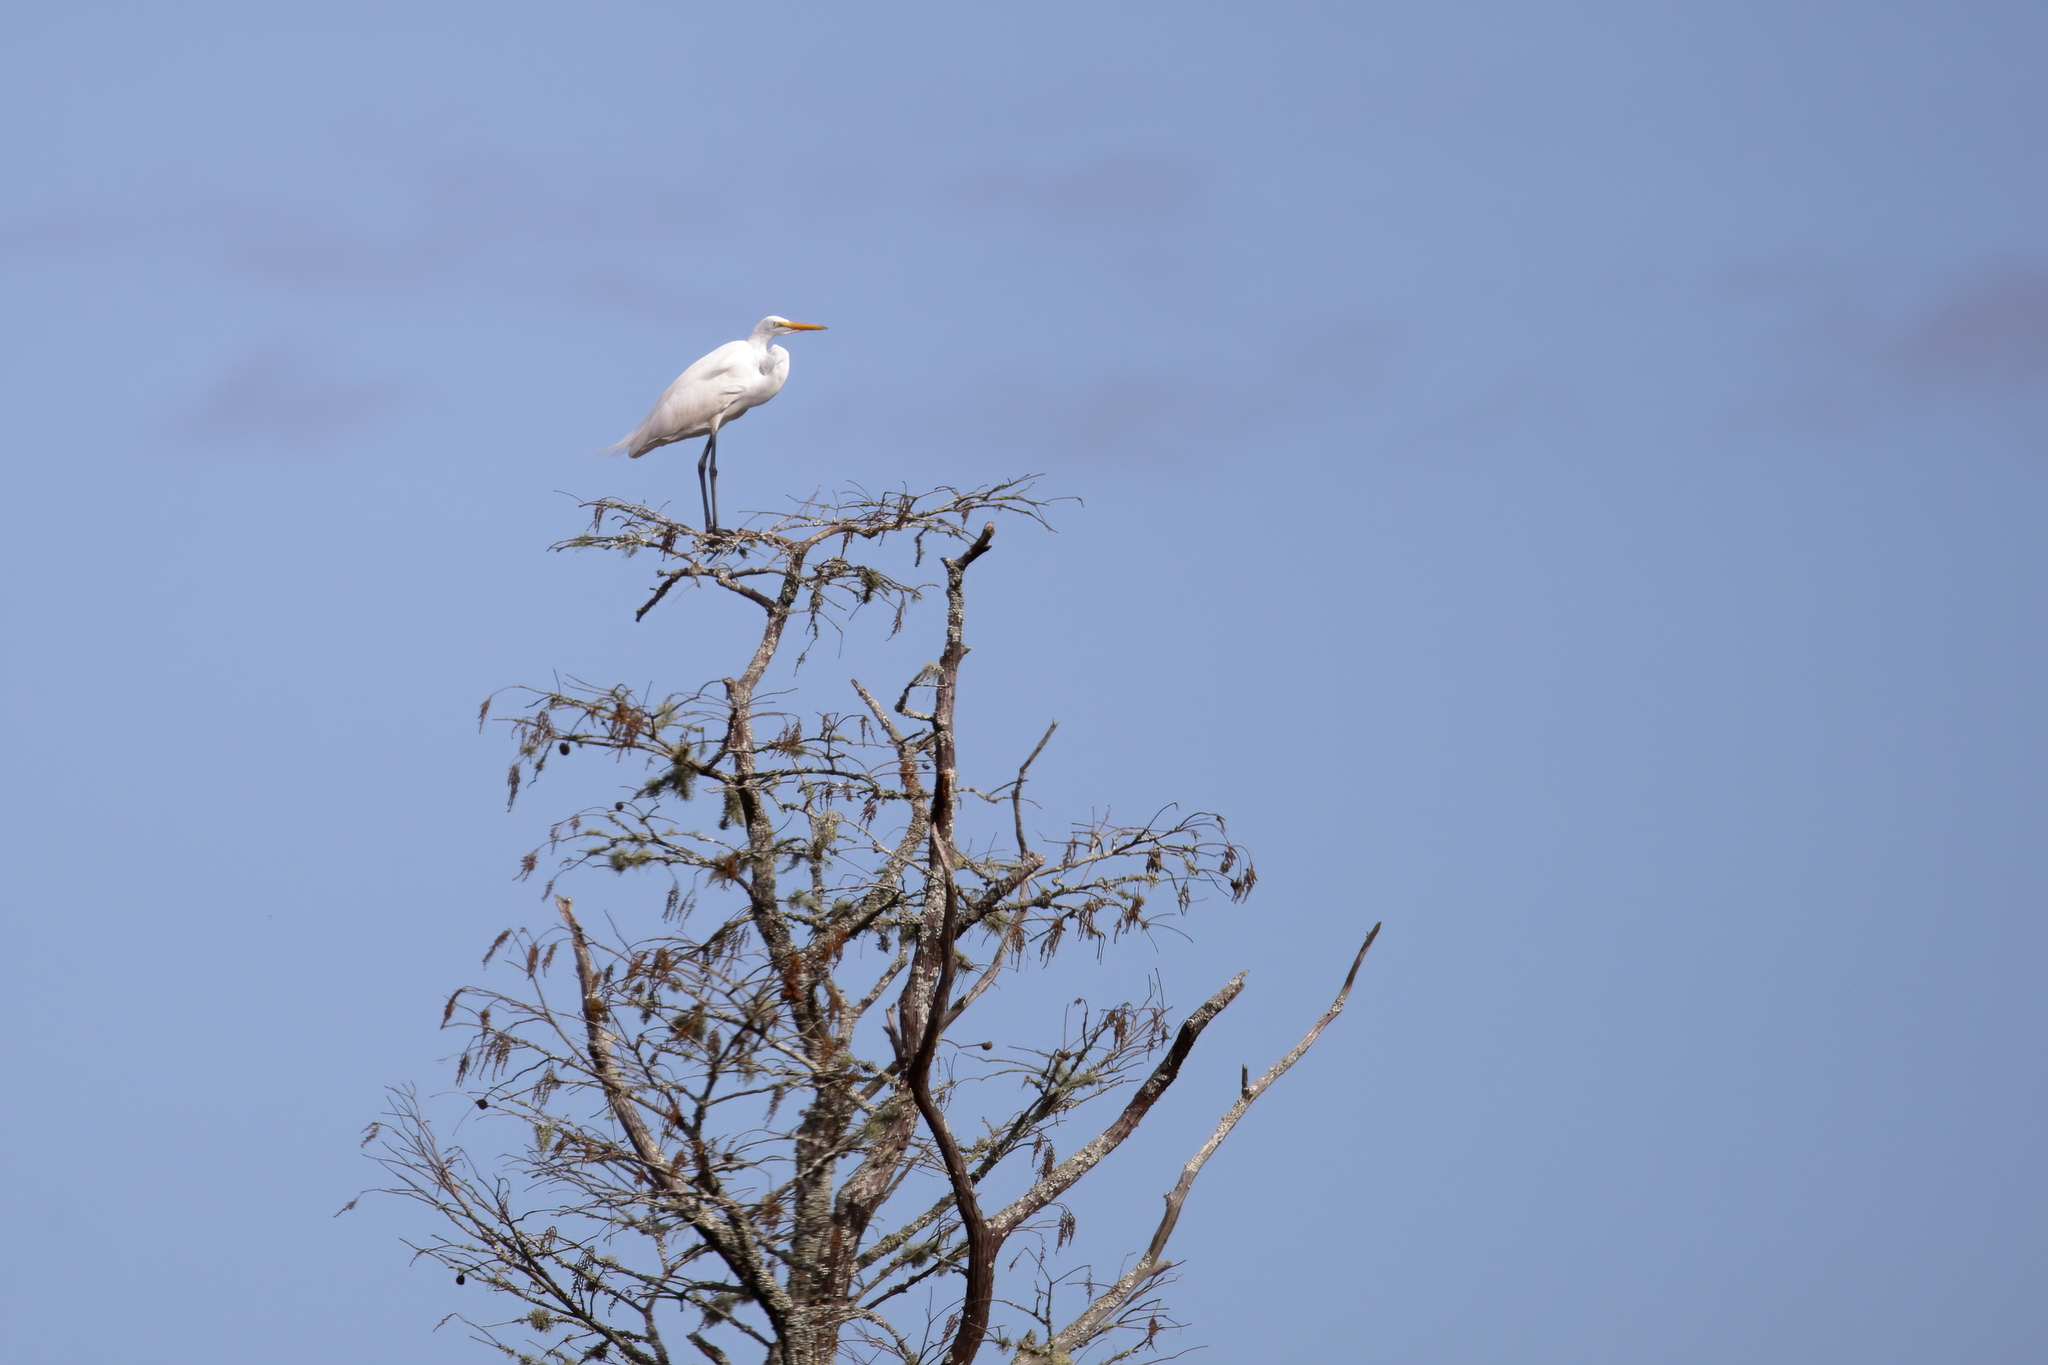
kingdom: Animalia
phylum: Chordata
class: Aves
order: Pelecaniformes
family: Ardeidae
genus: Ardea
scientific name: Ardea alba
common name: Great egret
